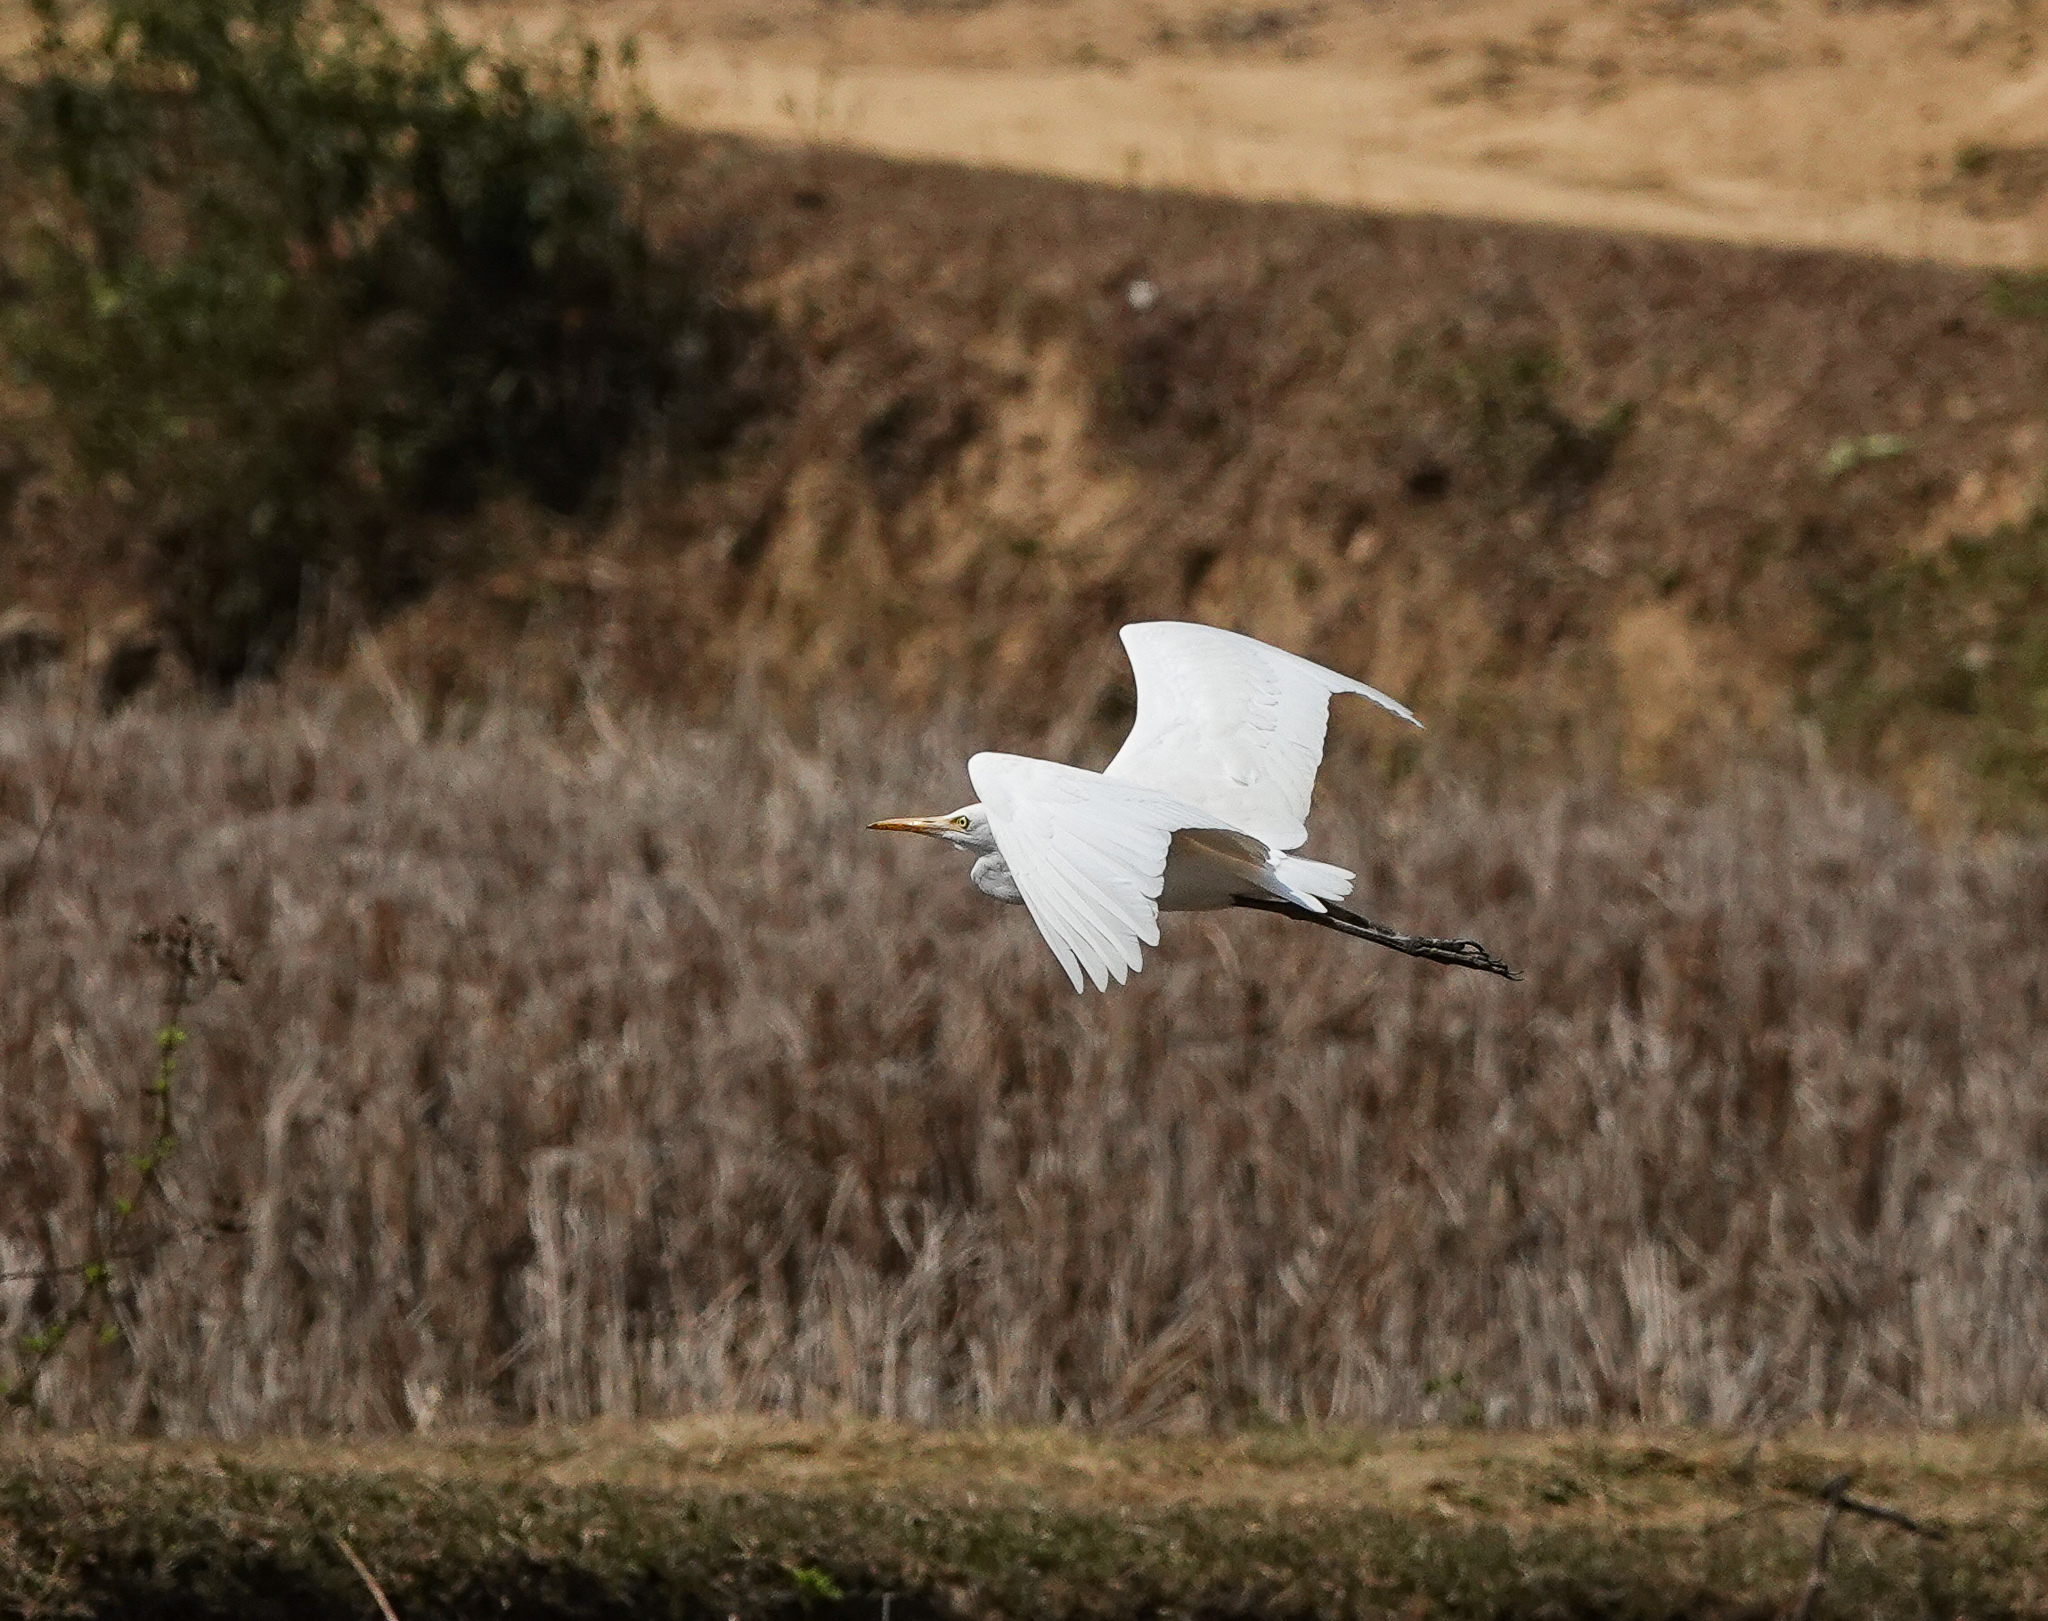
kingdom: Animalia
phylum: Chordata
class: Aves
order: Pelecaniformes
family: Ardeidae
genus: Bubulcus
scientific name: Bubulcus coromandus
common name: Eastern cattle egret
